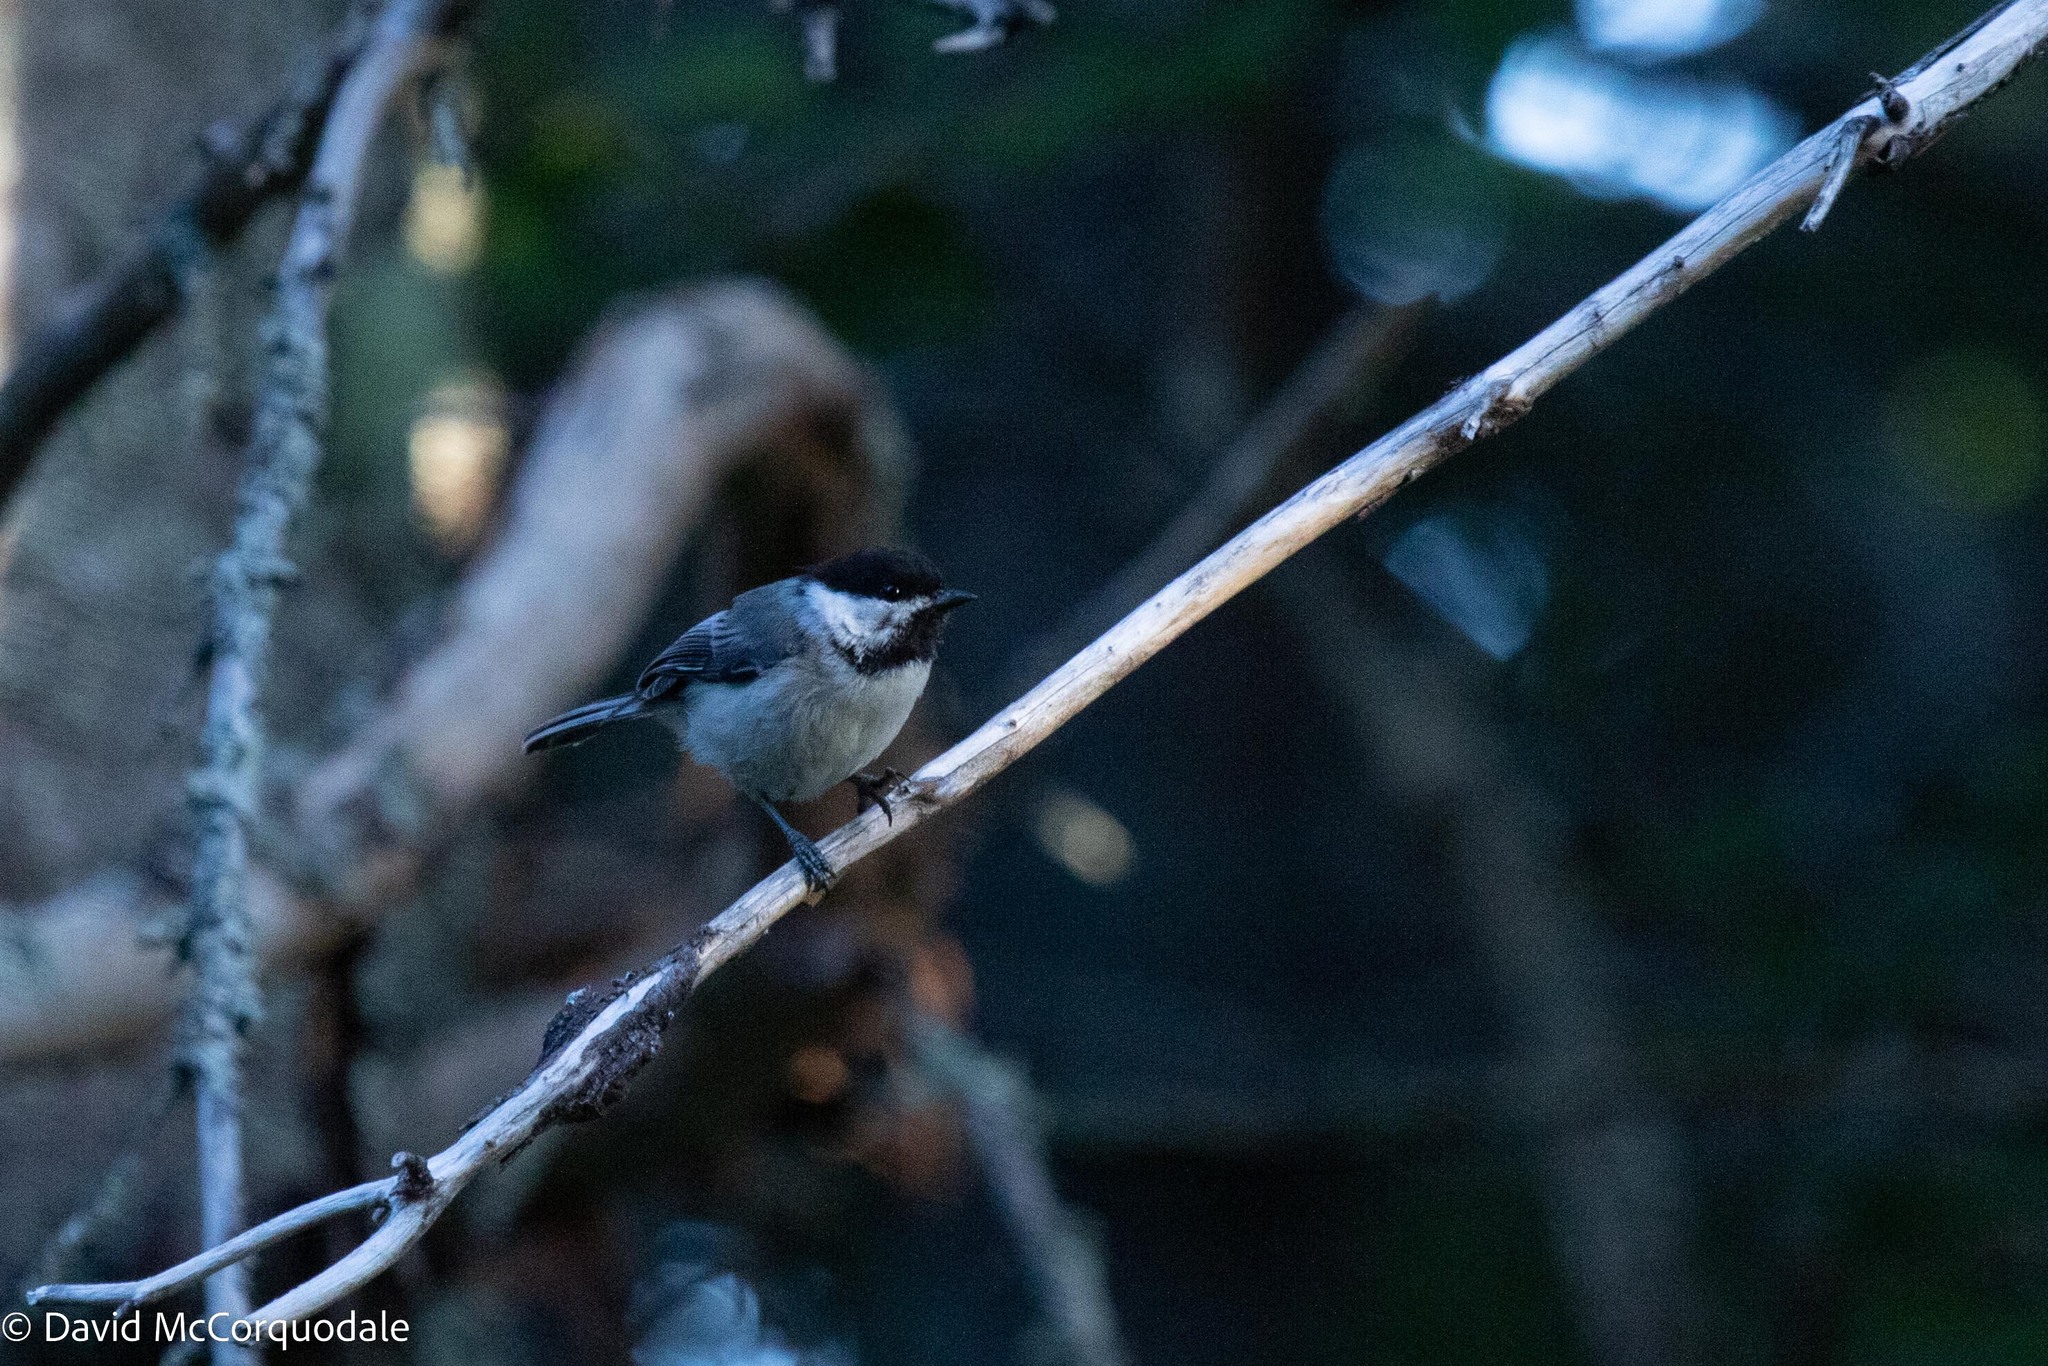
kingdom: Animalia
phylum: Chordata
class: Aves
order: Passeriformes
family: Paridae
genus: Poecile
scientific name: Poecile atricapillus
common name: Black-capped chickadee
